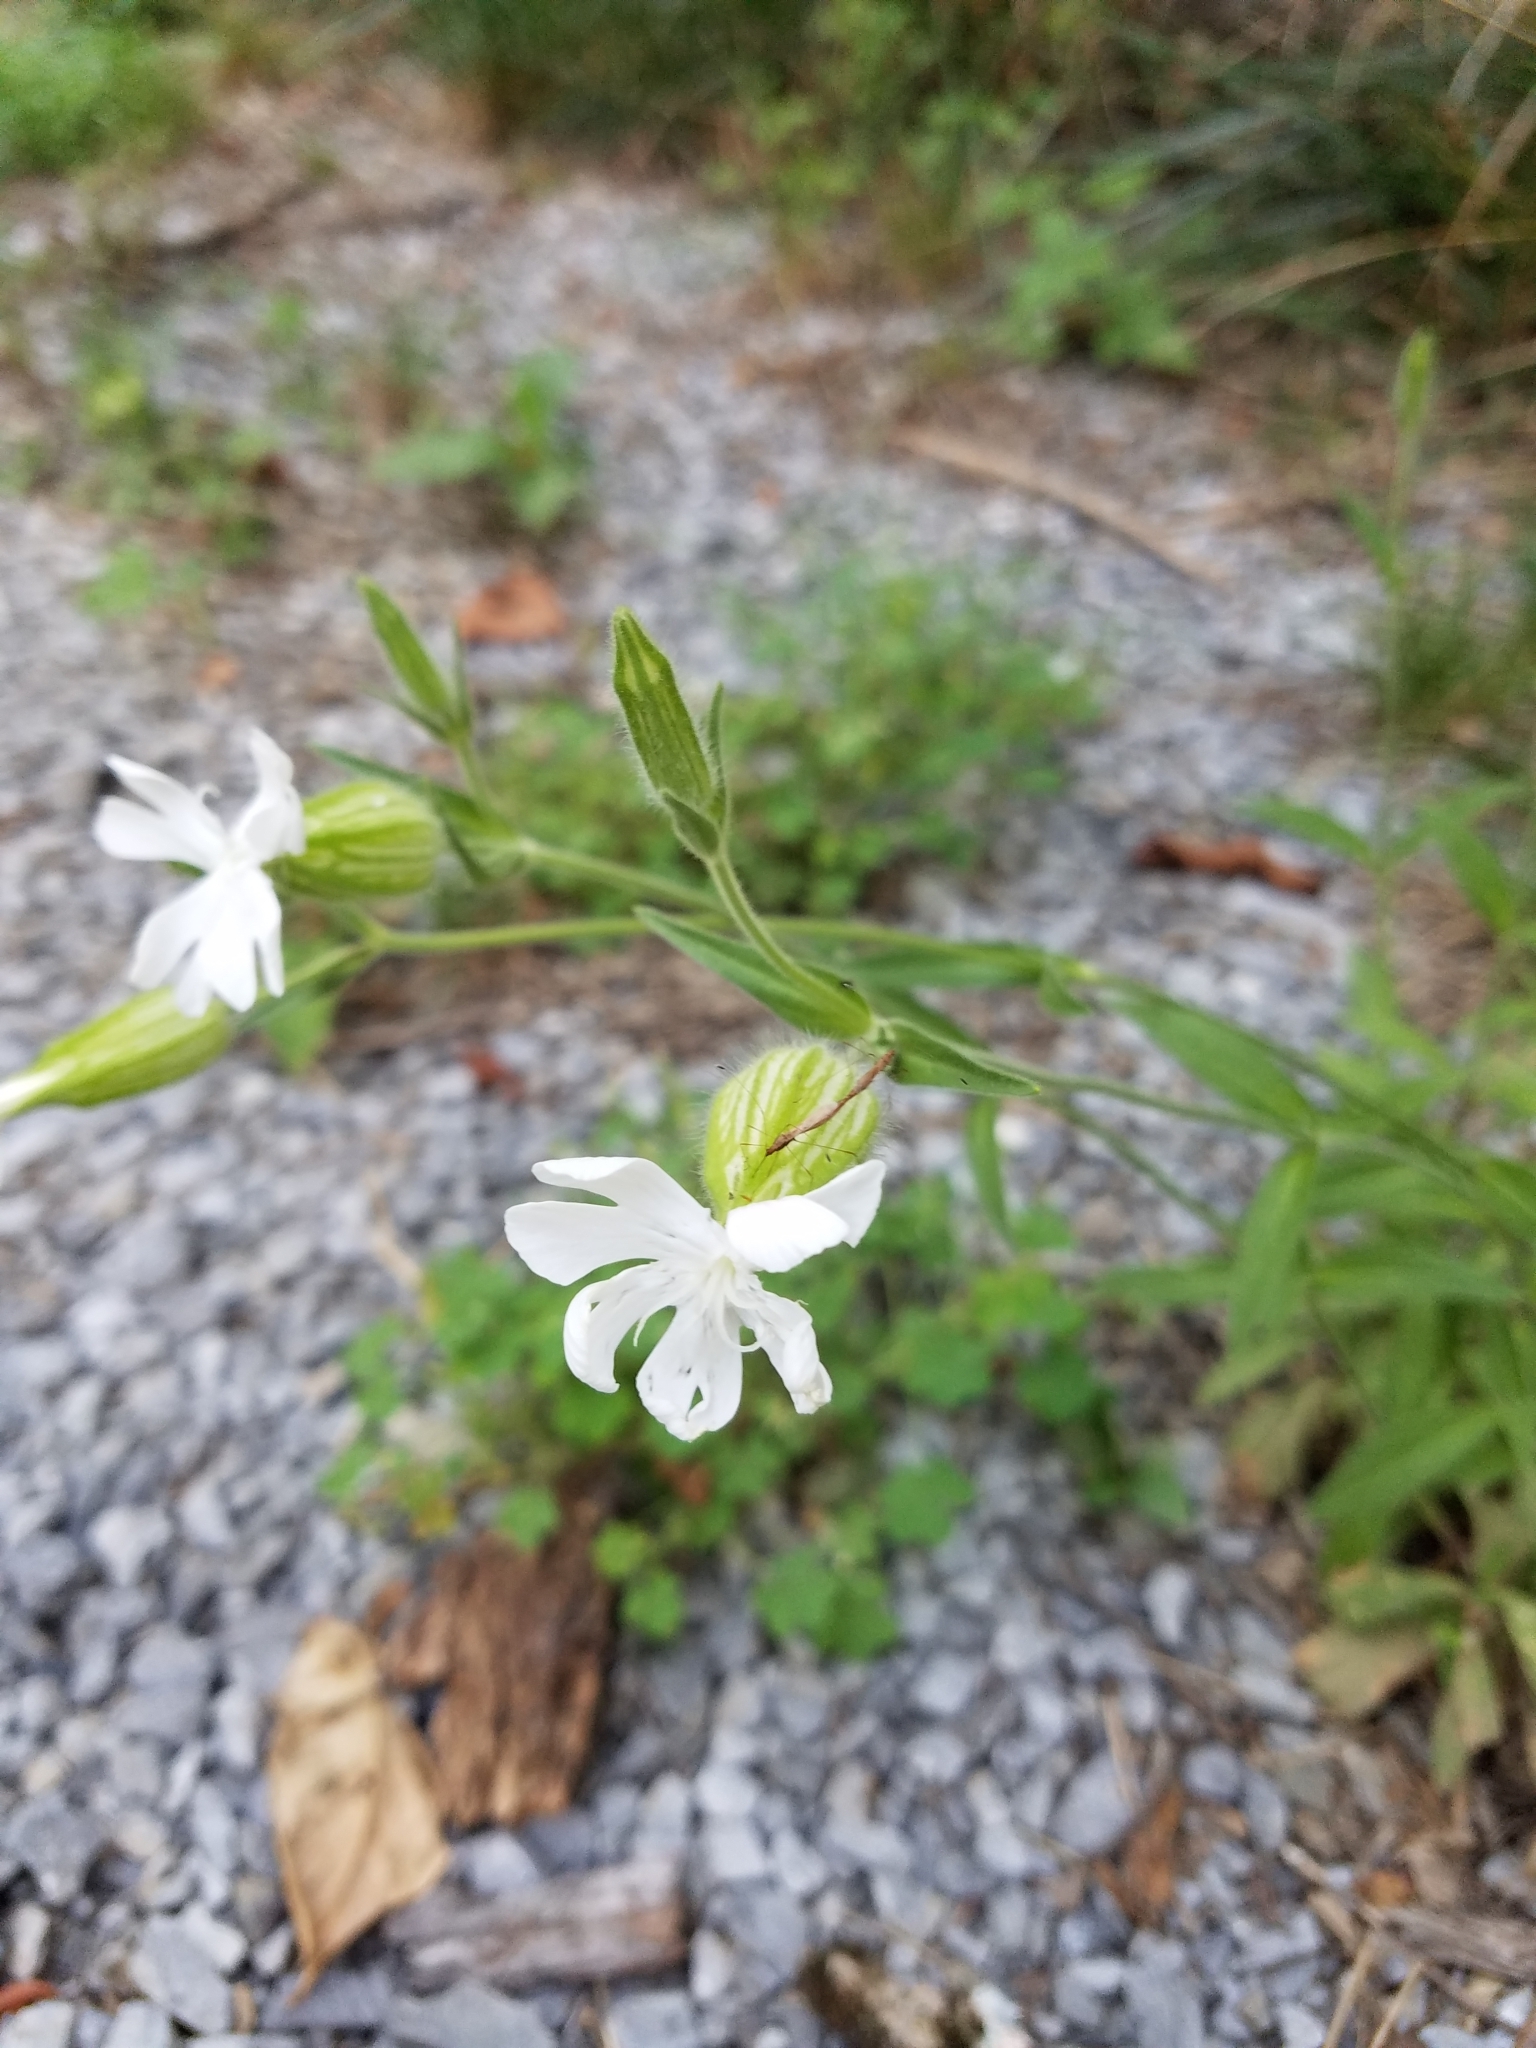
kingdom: Plantae
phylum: Tracheophyta
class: Magnoliopsida
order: Caryophyllales
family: Caryophyllaceae
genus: Silene
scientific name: Silene latifolia
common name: White campion
